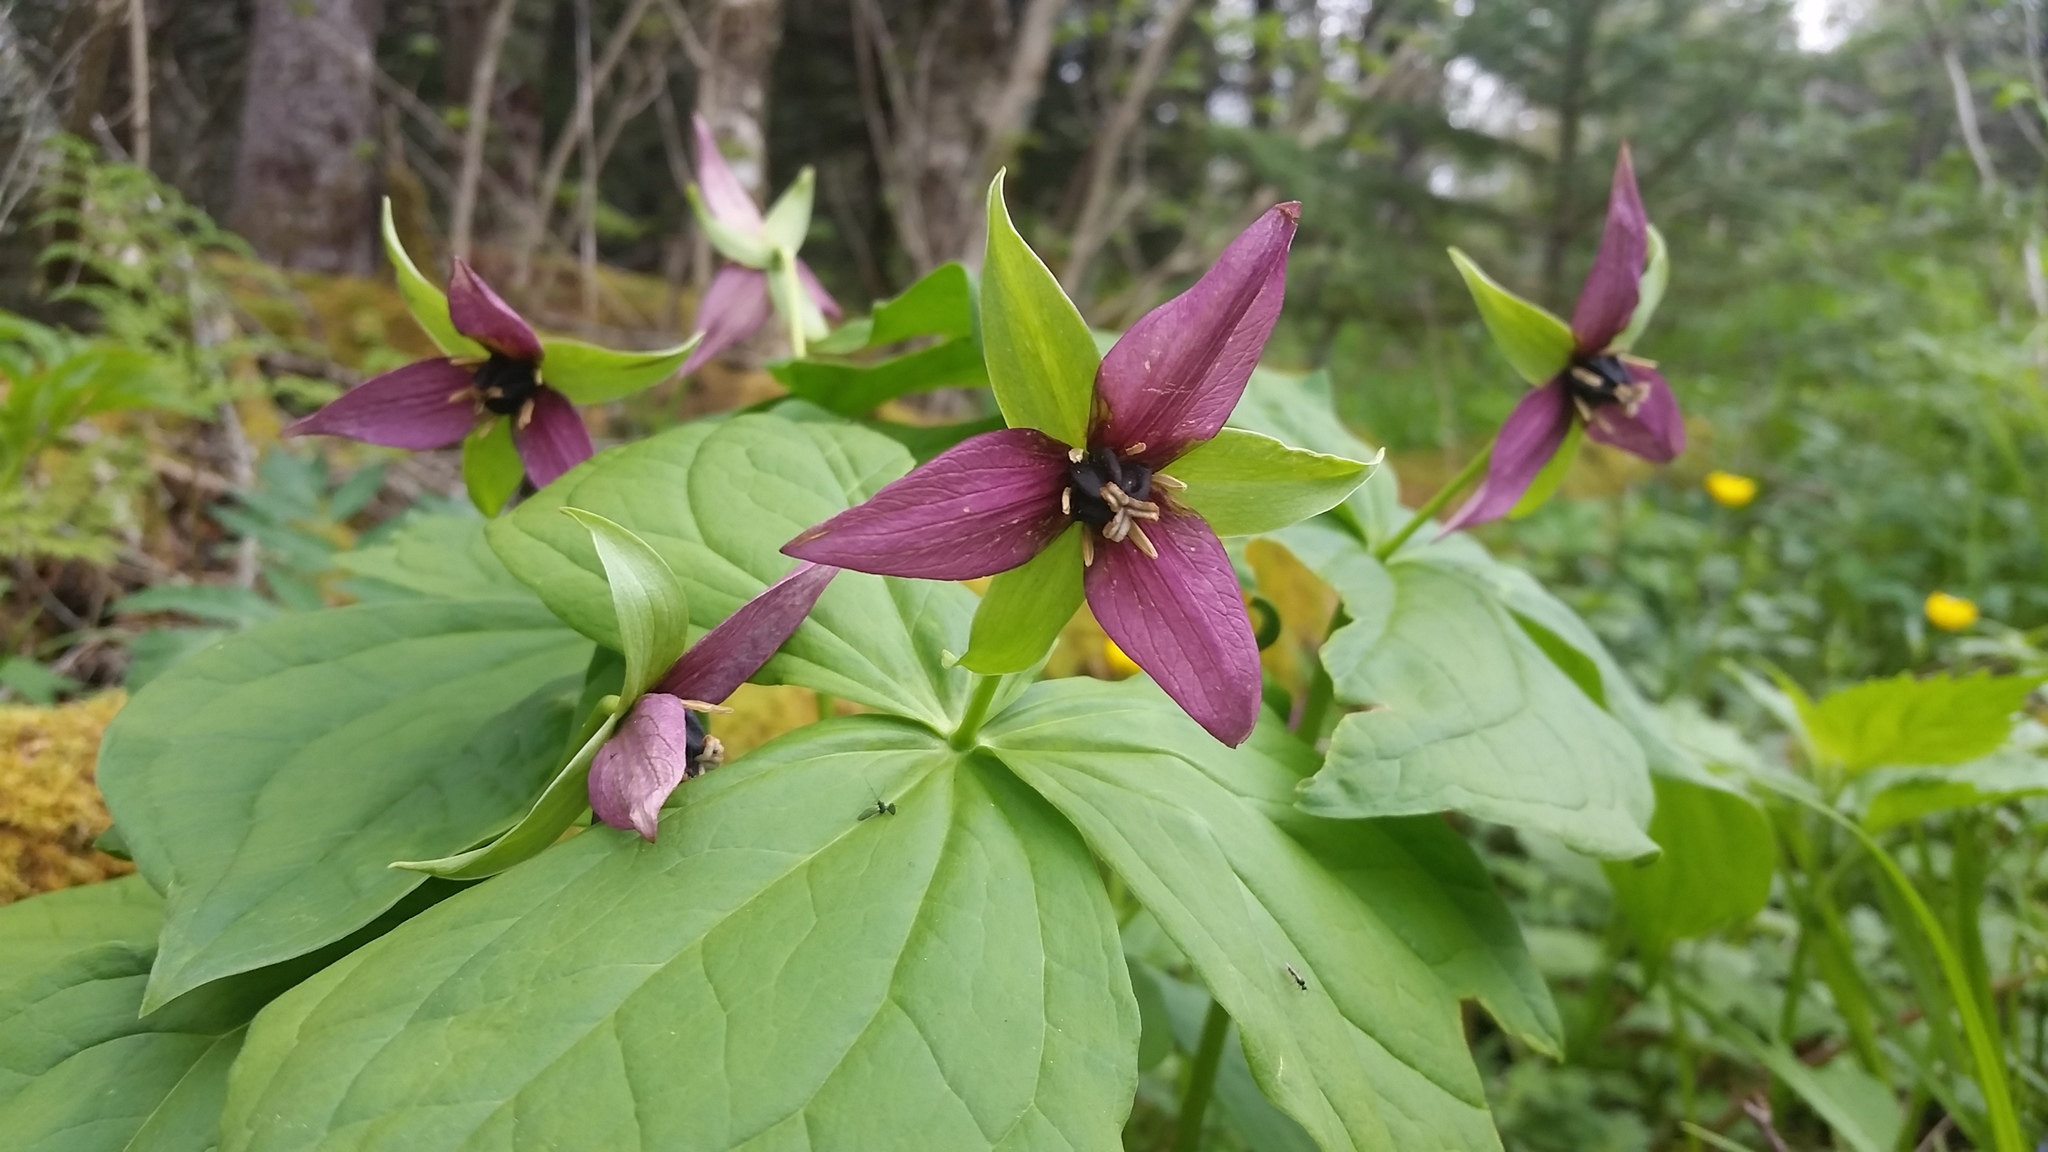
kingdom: Plantae
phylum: Tracheophyta
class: Liliopsida
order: Liliales
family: Melanthiaceae
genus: Trillium
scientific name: Trillium erectum
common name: Purple trillium
